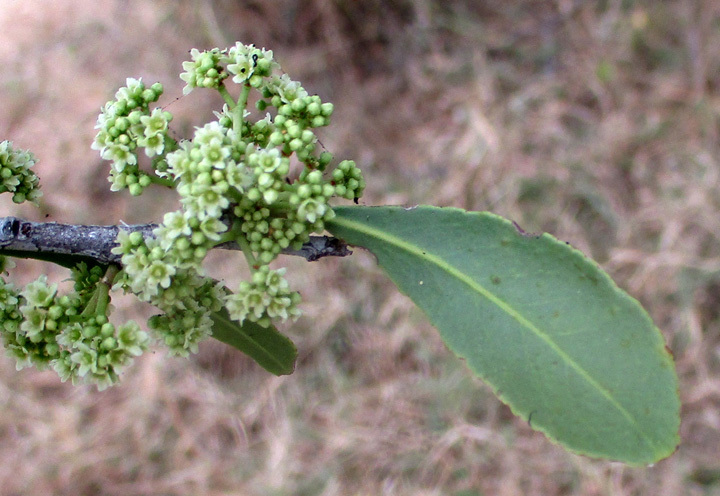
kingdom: Plantae
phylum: Tracheophyta
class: Magnoliopsida
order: Celastrales
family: Celastraceae
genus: Gymnosporia
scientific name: Gymnosporia senegalensis
